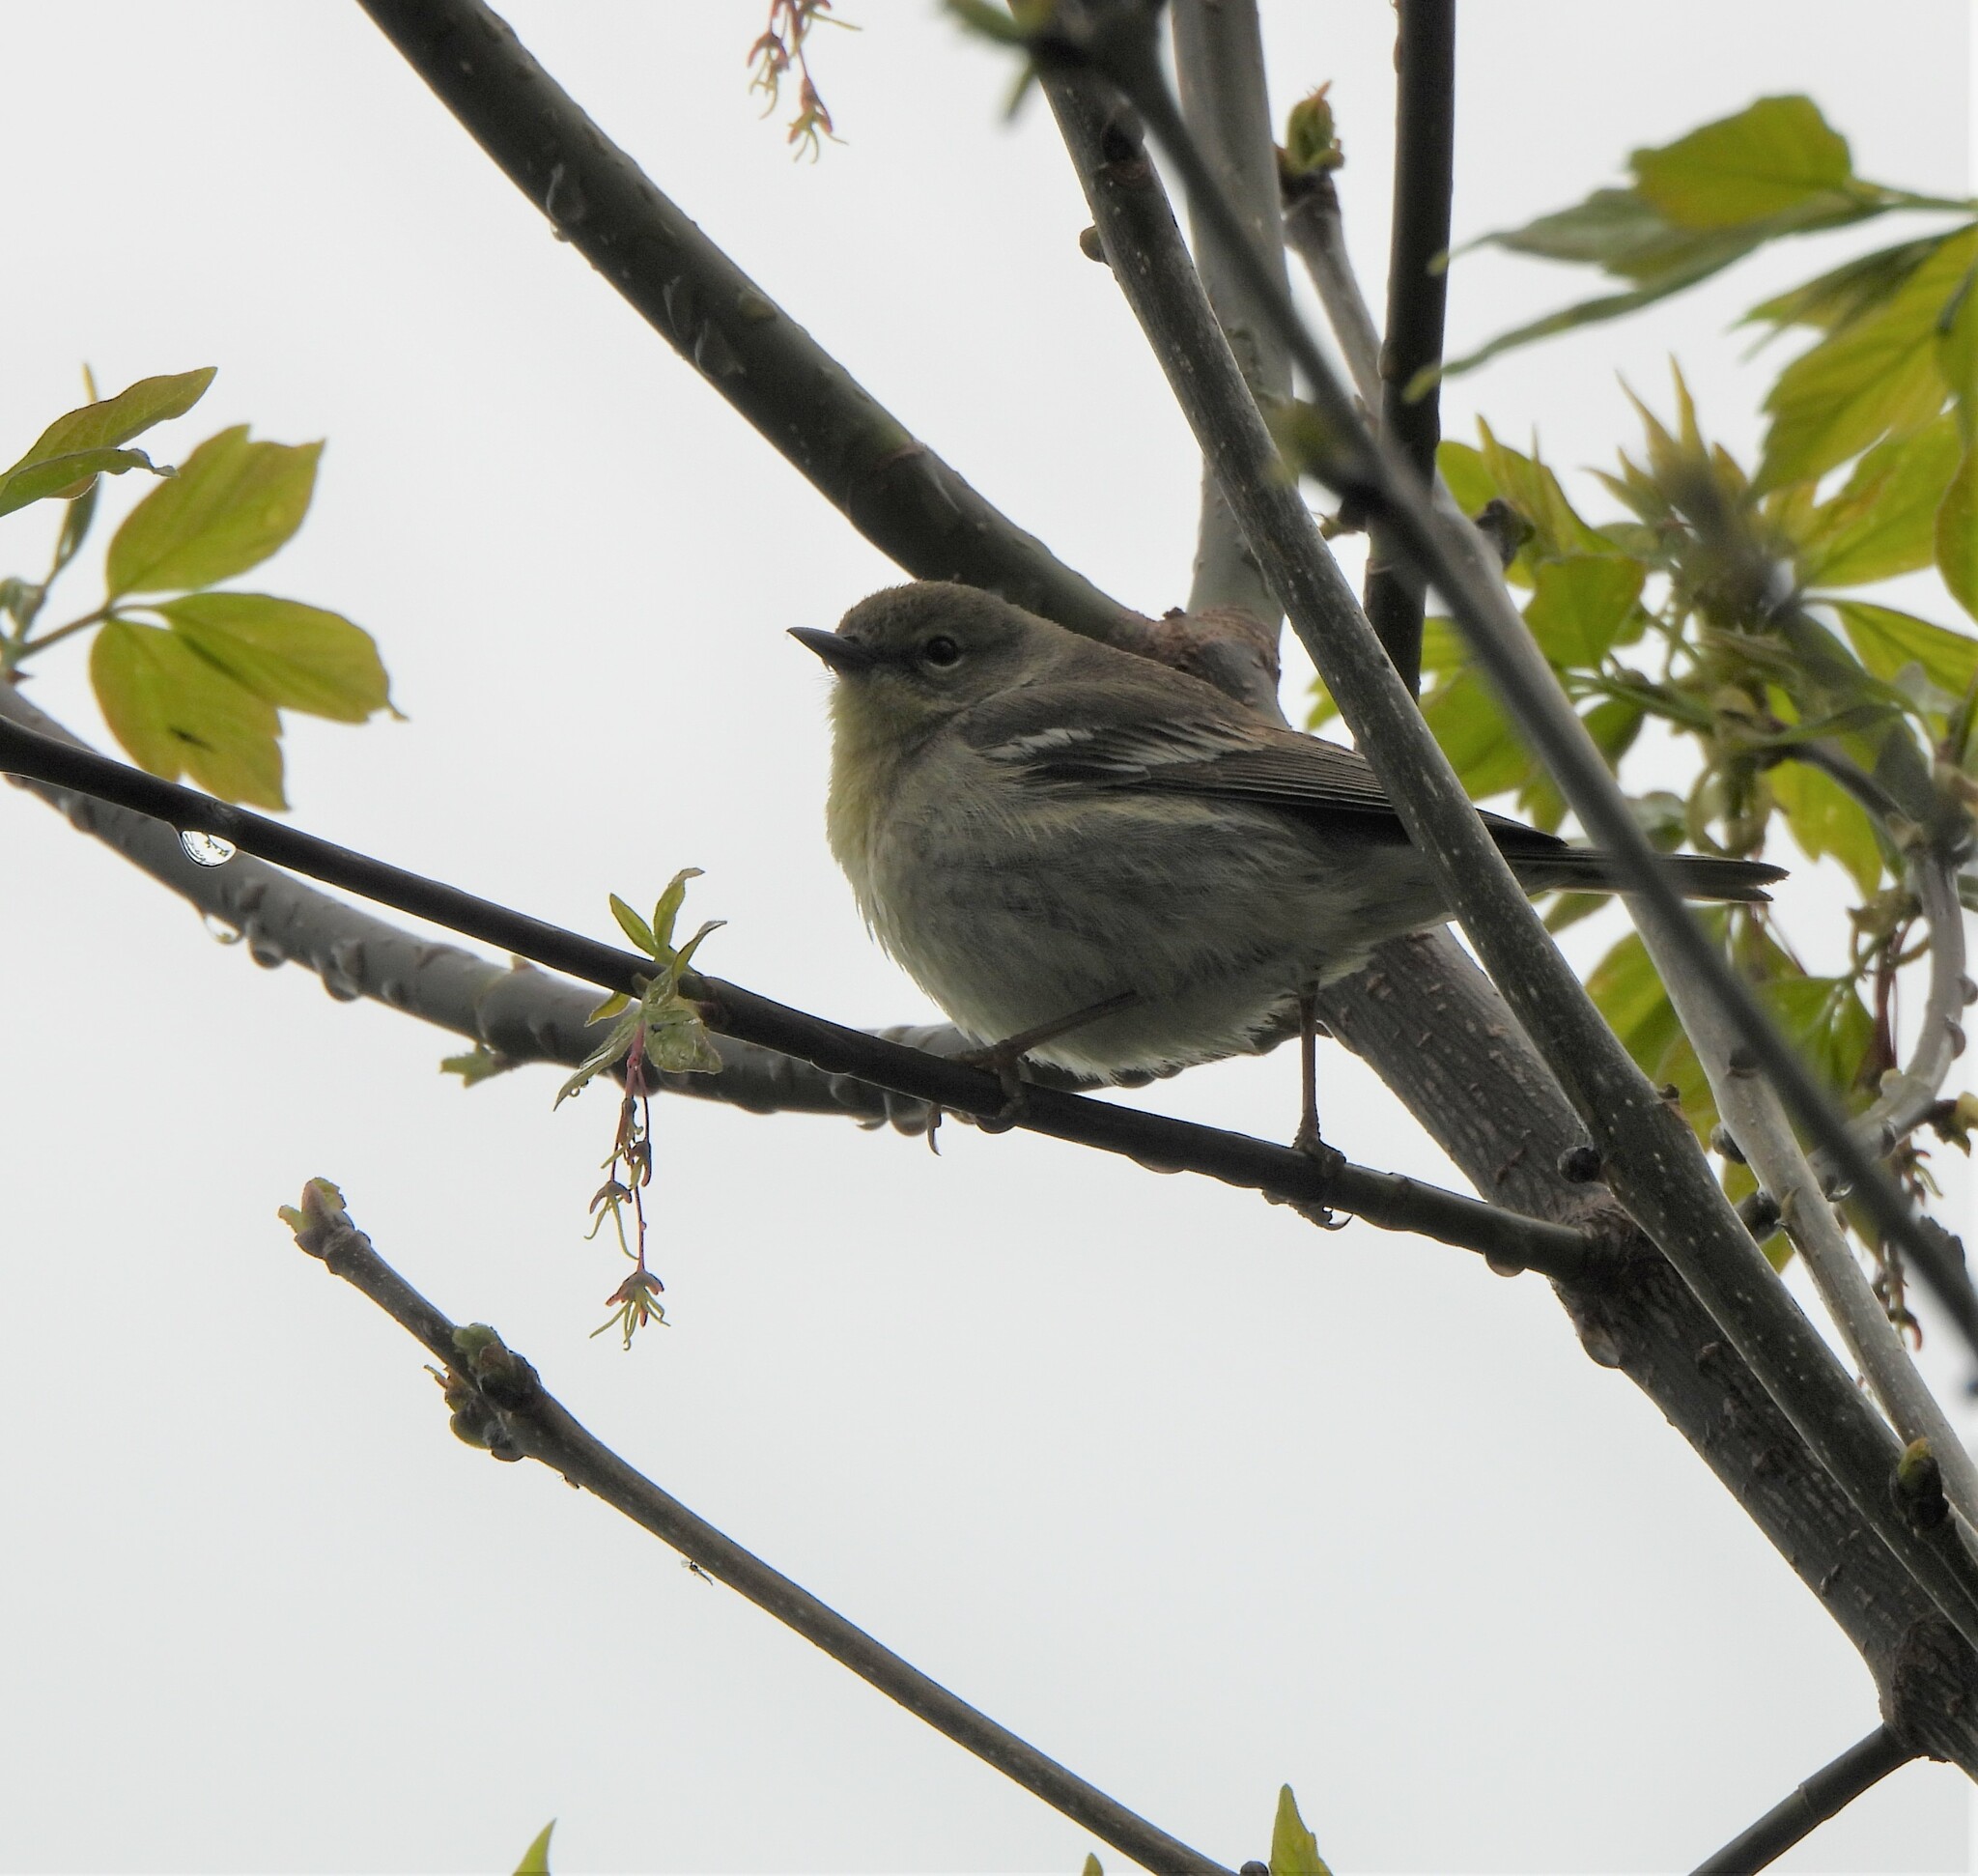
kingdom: Animalia
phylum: Chordata
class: Aves
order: Passeriformes
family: Parulidae
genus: Setophaga
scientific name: Setophaga pinus
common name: Pine warbler
